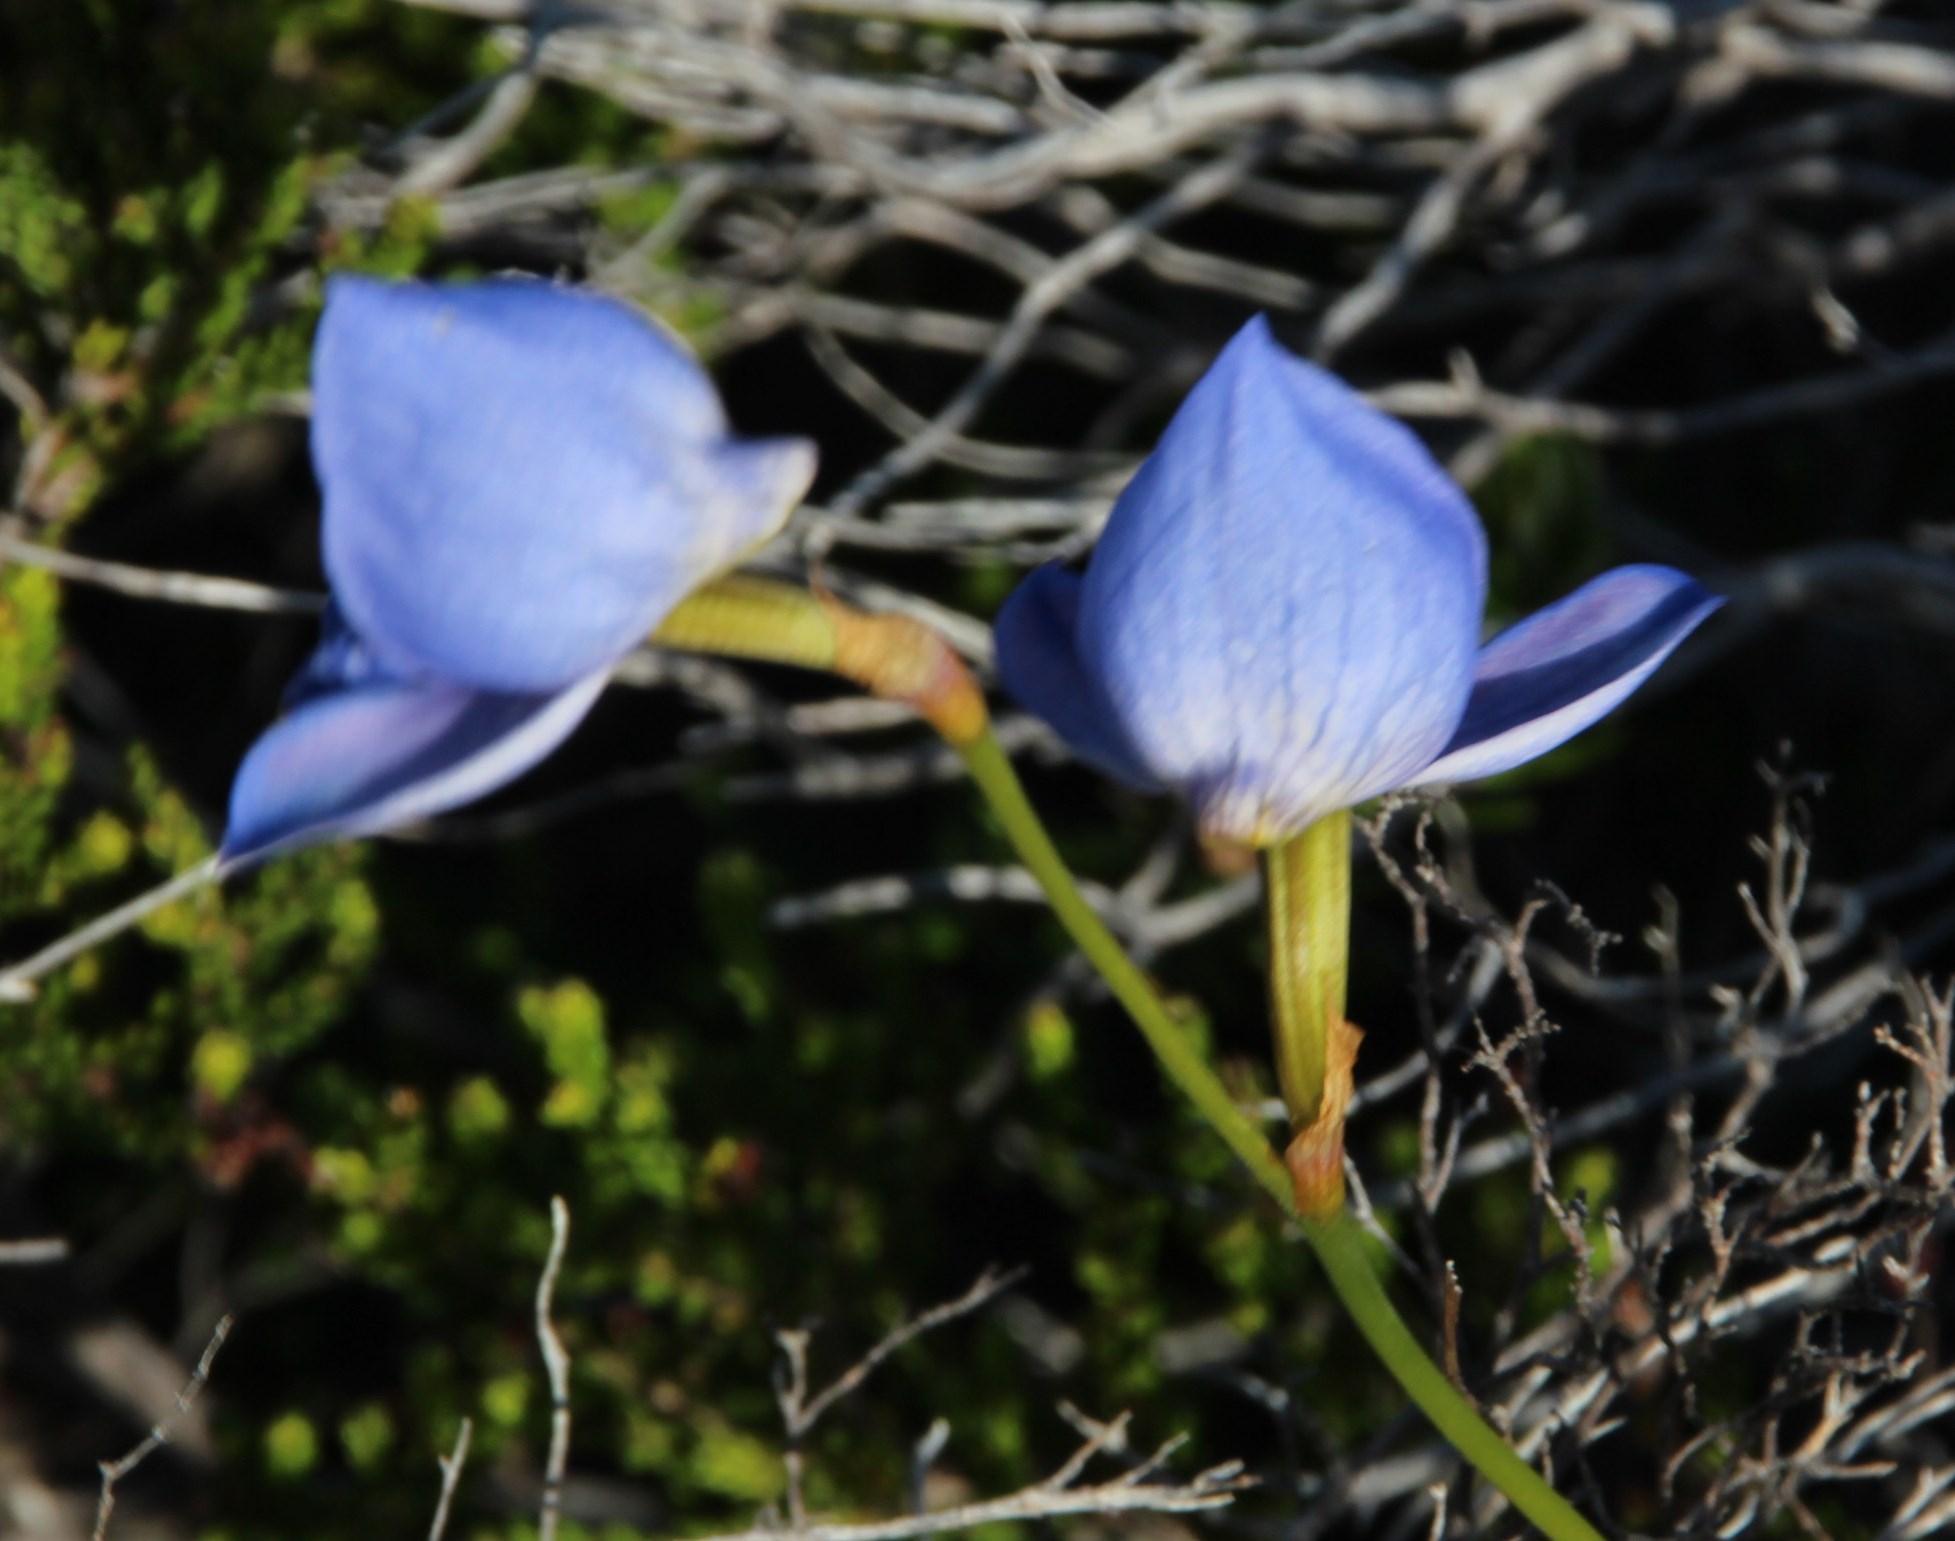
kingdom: Plantae
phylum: Tracheophyta
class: Liliopsida
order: Asparagales
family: Orchidaceae
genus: Disa
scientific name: Disa purpurascens
